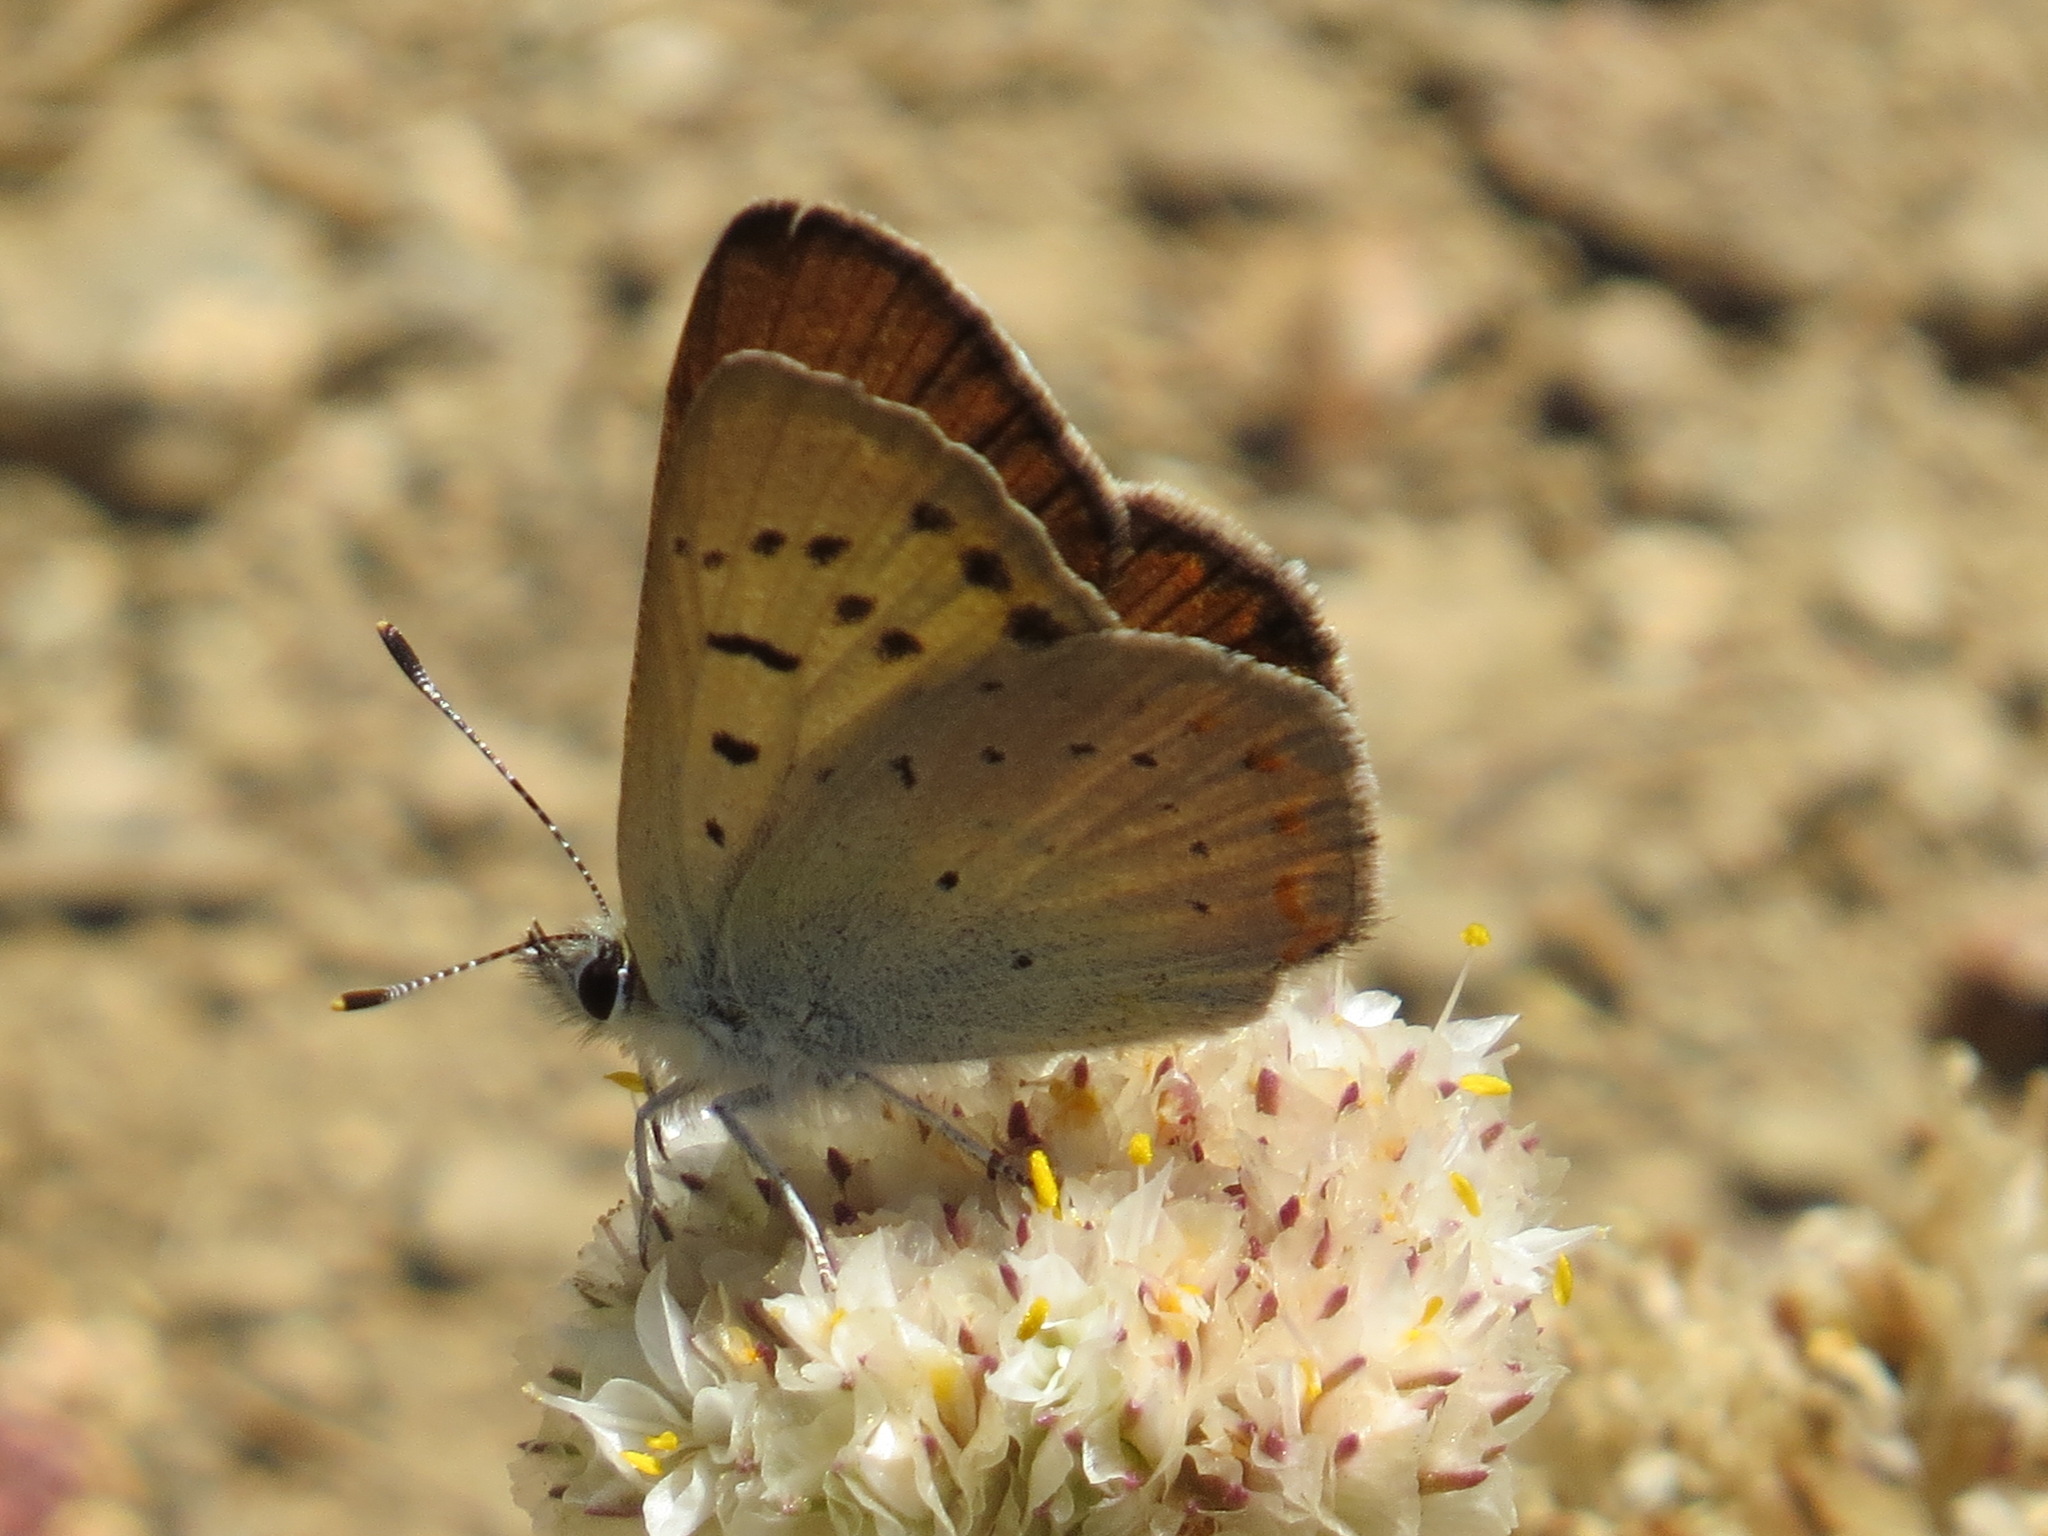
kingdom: Animalia
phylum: Arthropoda
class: Insecta
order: Lepidoptera
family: Lycaenidae
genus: Tharsalea
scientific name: Tharsalea nivalis
